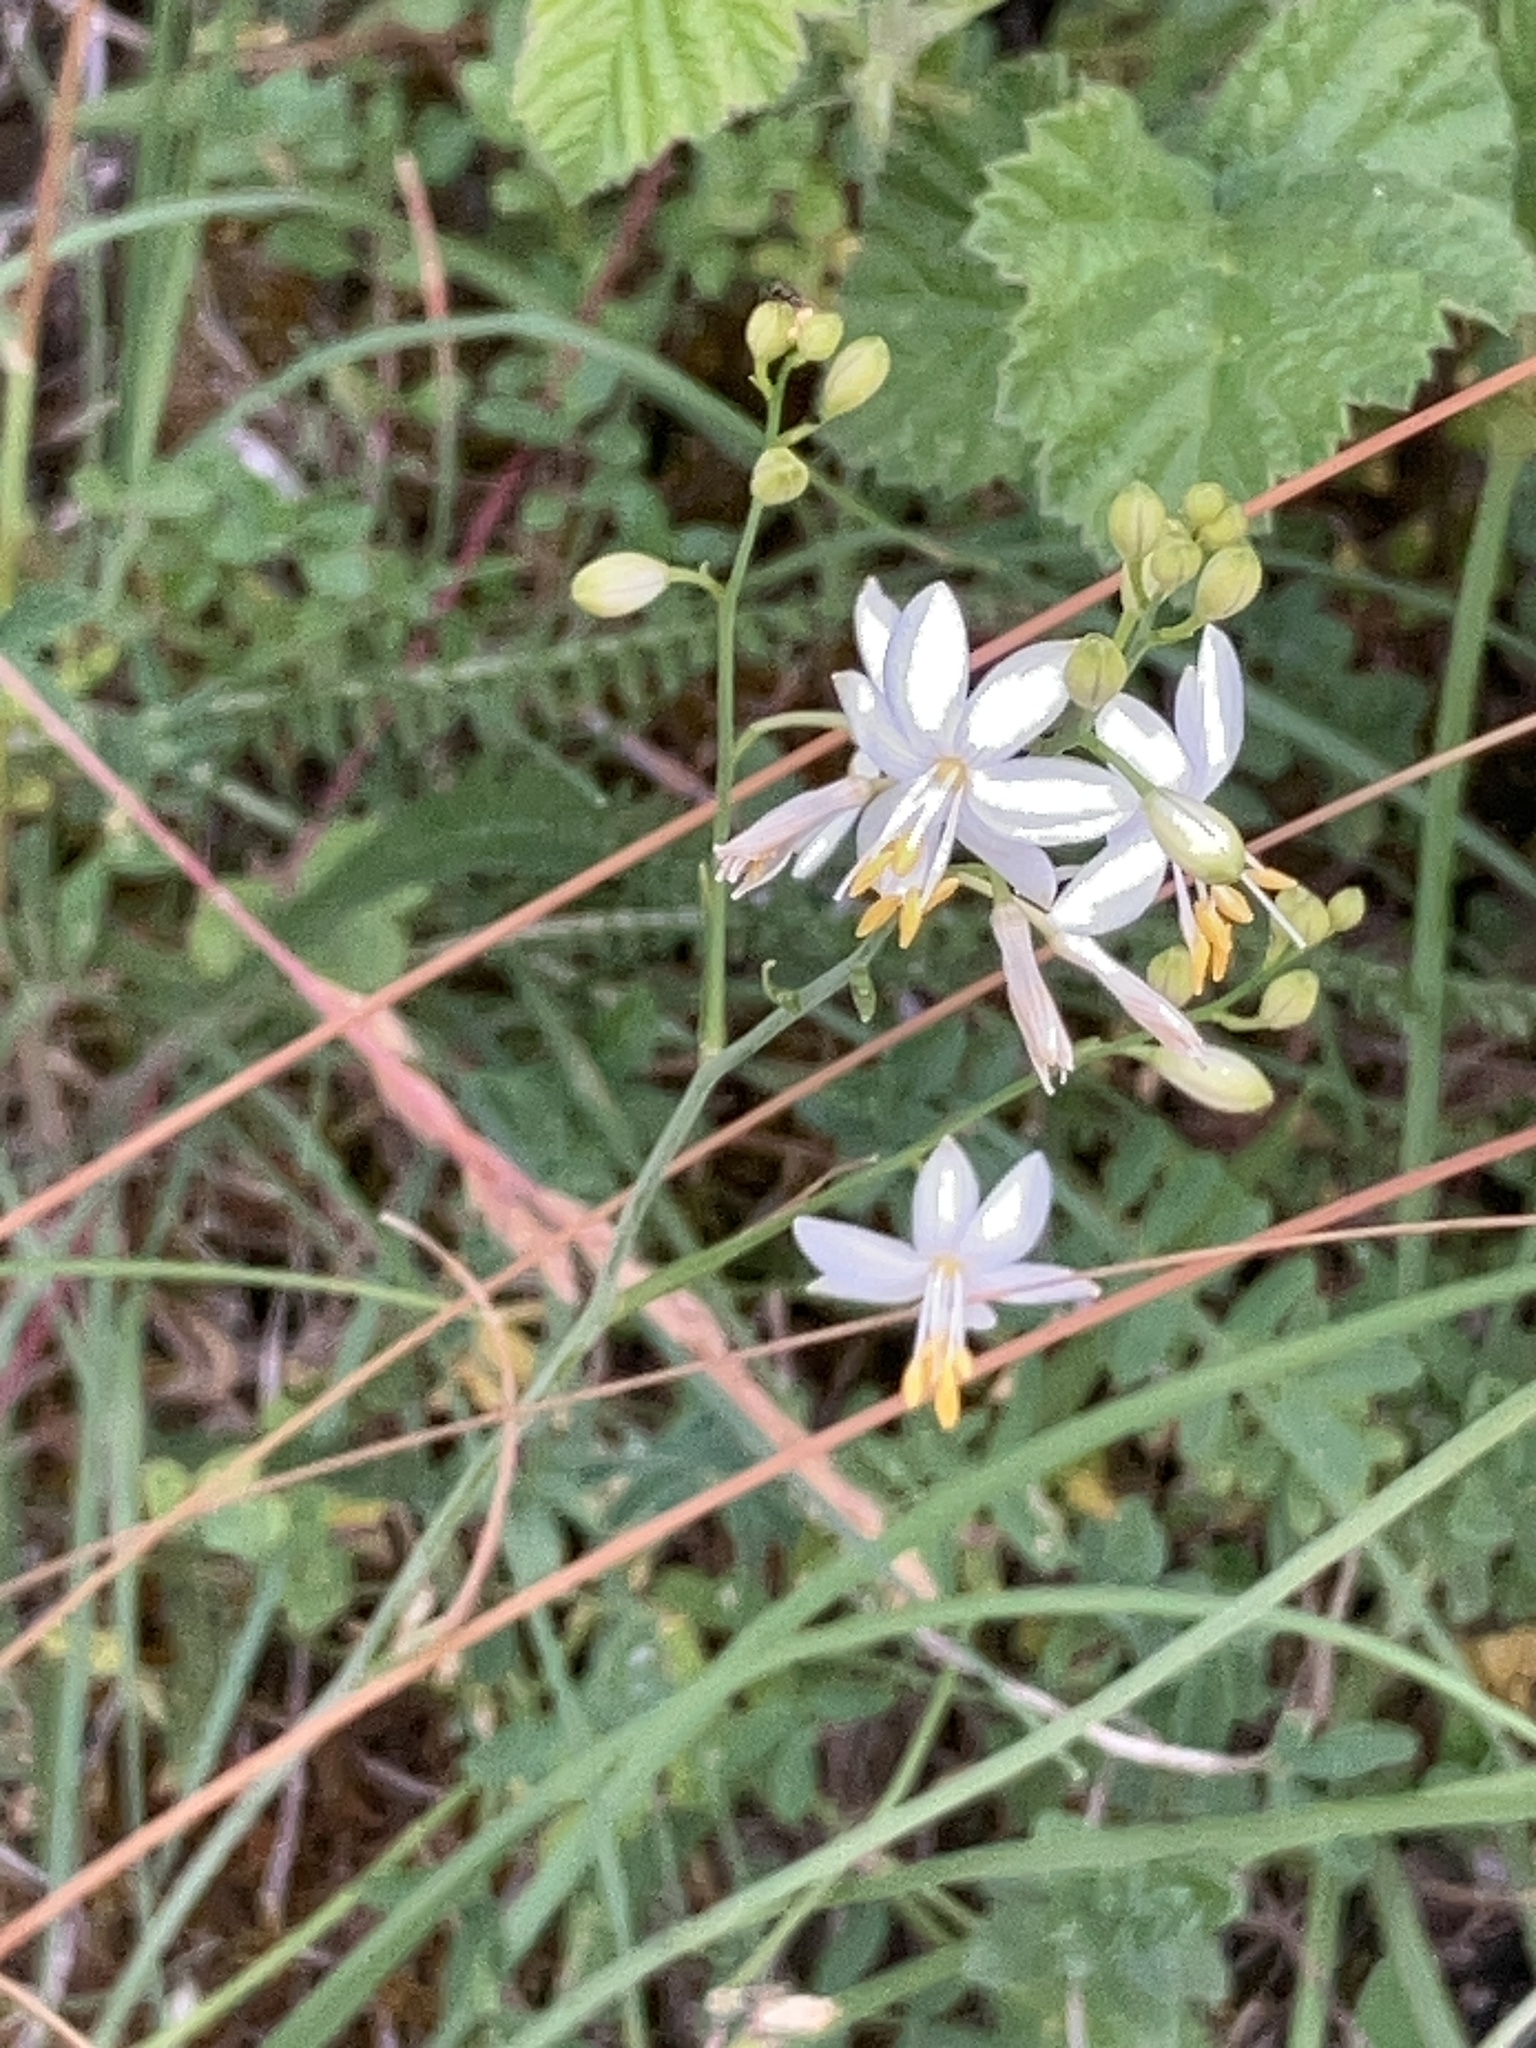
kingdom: Plantae
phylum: Tracheophyta
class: Liliopsida
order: Asparagales
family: Asparagaceae
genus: Anthericum
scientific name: Anthericum ramosum
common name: Branched st. bernard's-lily
